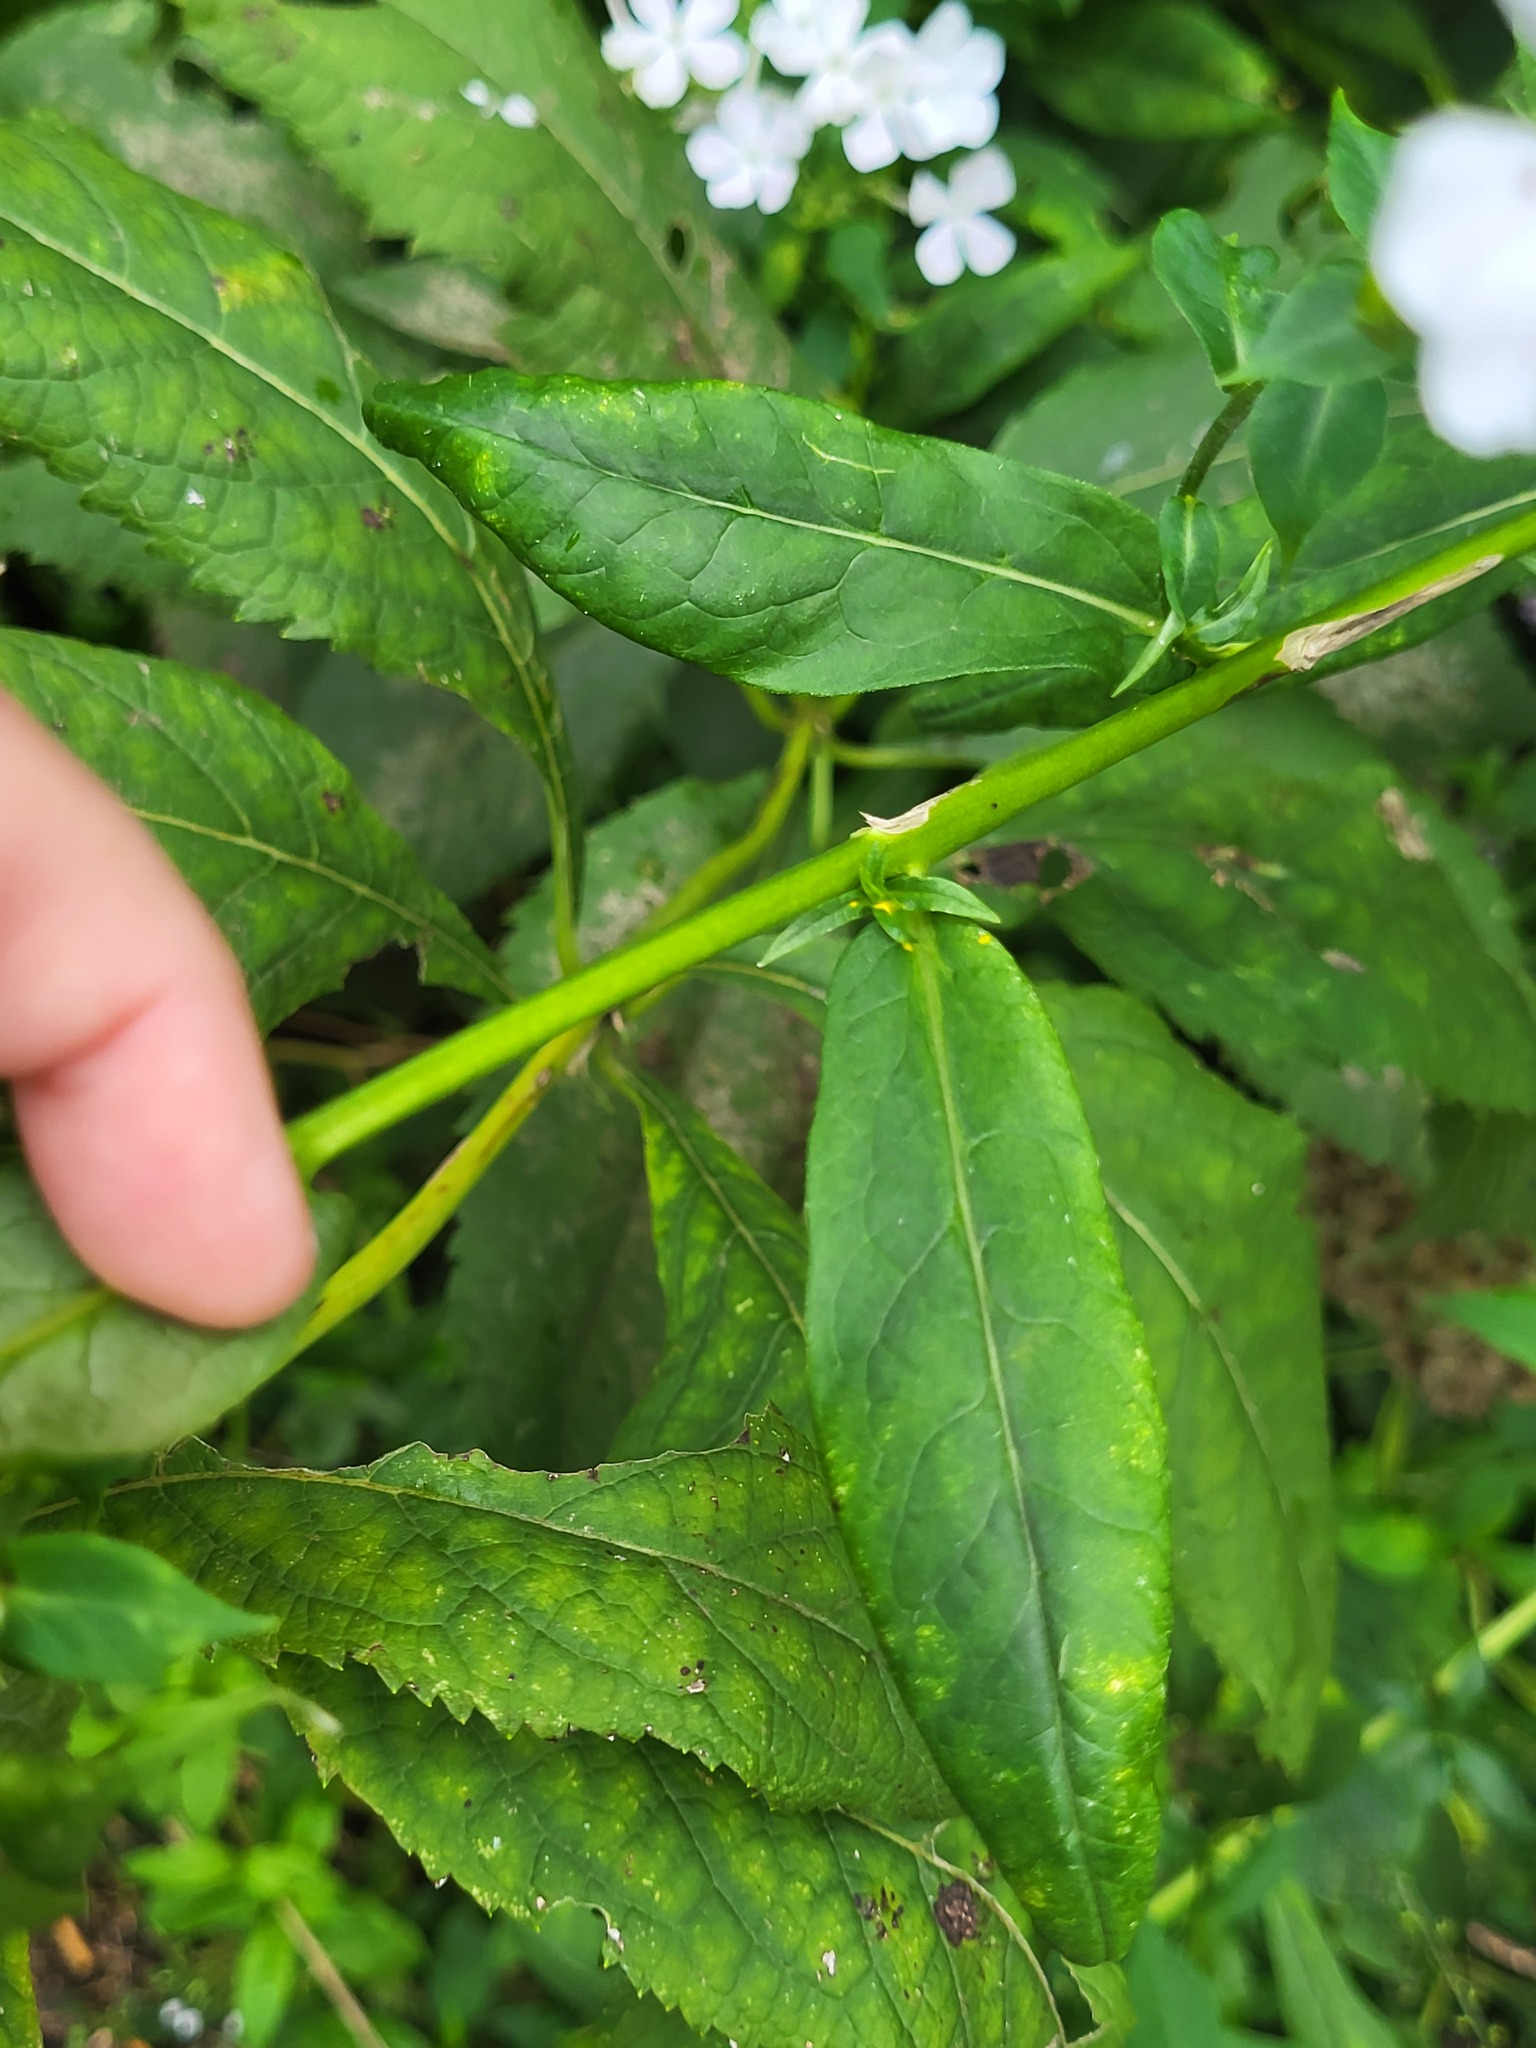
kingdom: Plantae
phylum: Tracheophyta
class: Magnoliopsida
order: Ericales
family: Polemoniaceae
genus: Phlox
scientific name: Phlox paniculata
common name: Fall phlox
